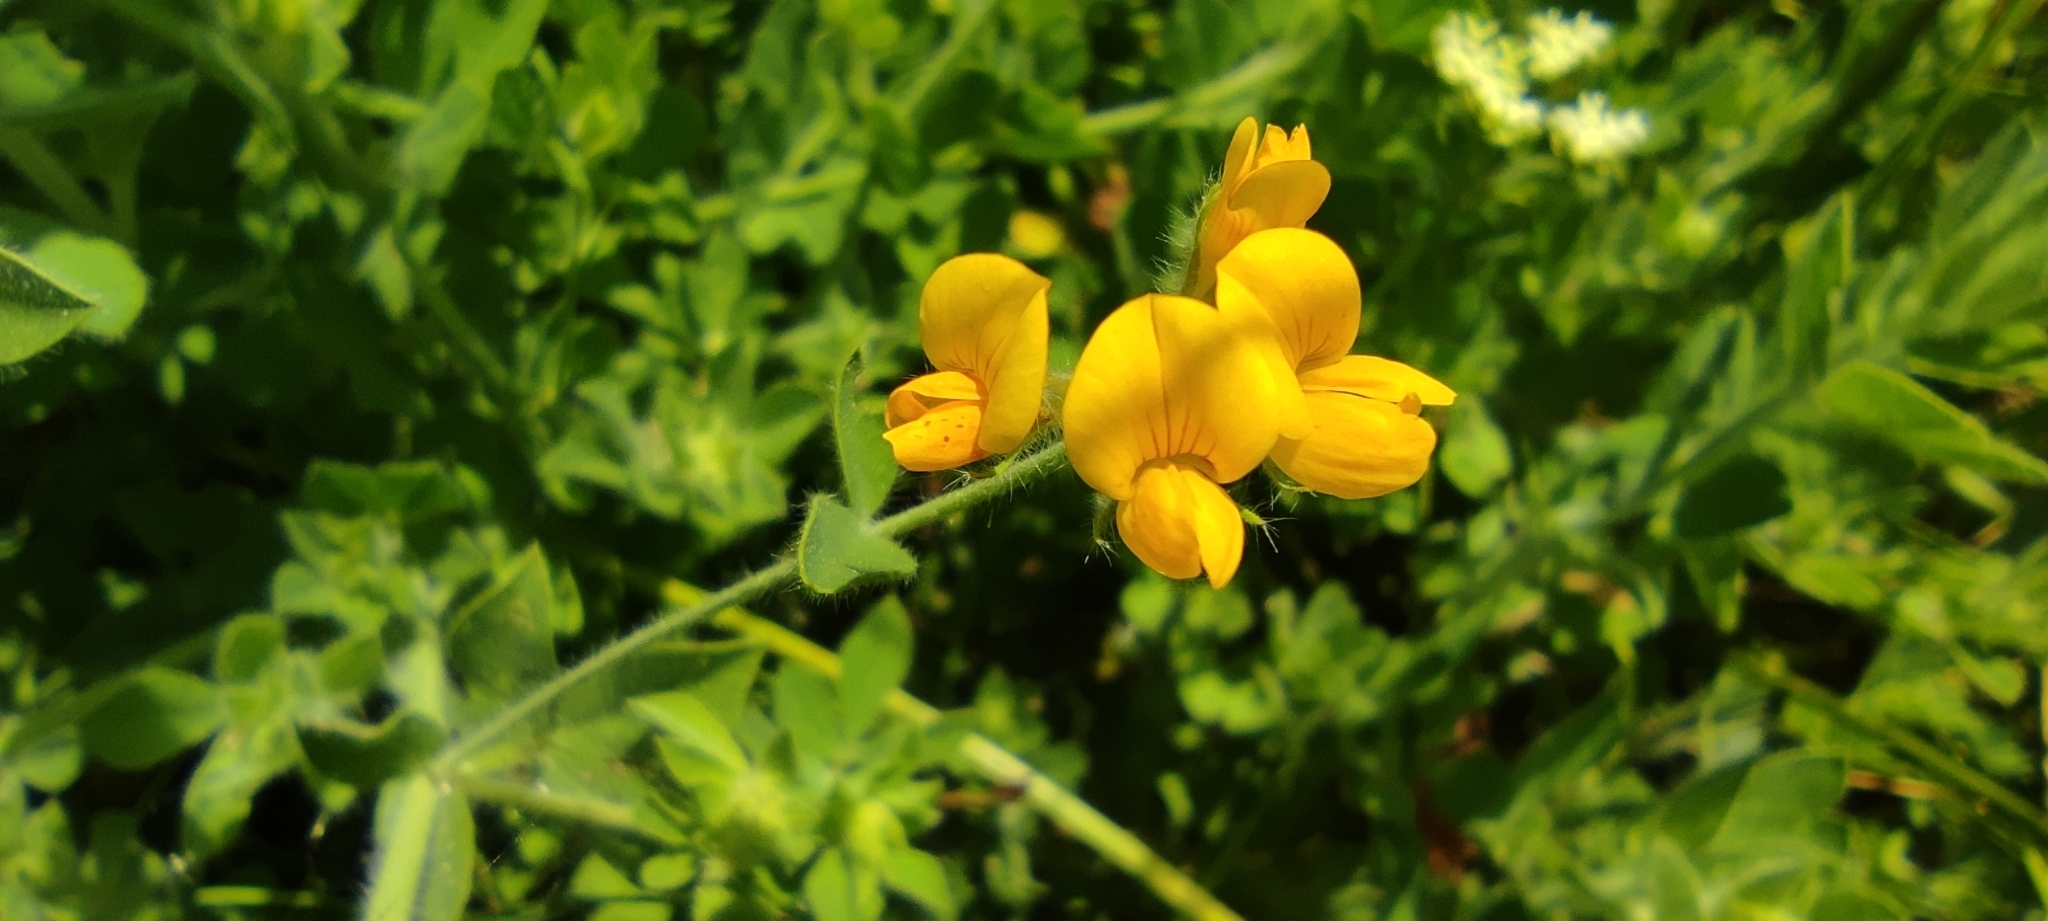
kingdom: Plantae
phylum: Tracheophyta
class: Magnoliopsida
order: Fabales
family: Fabaceae
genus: Lotus
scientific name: Lotus corniculatus
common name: Common bird's-foot-trefoil
